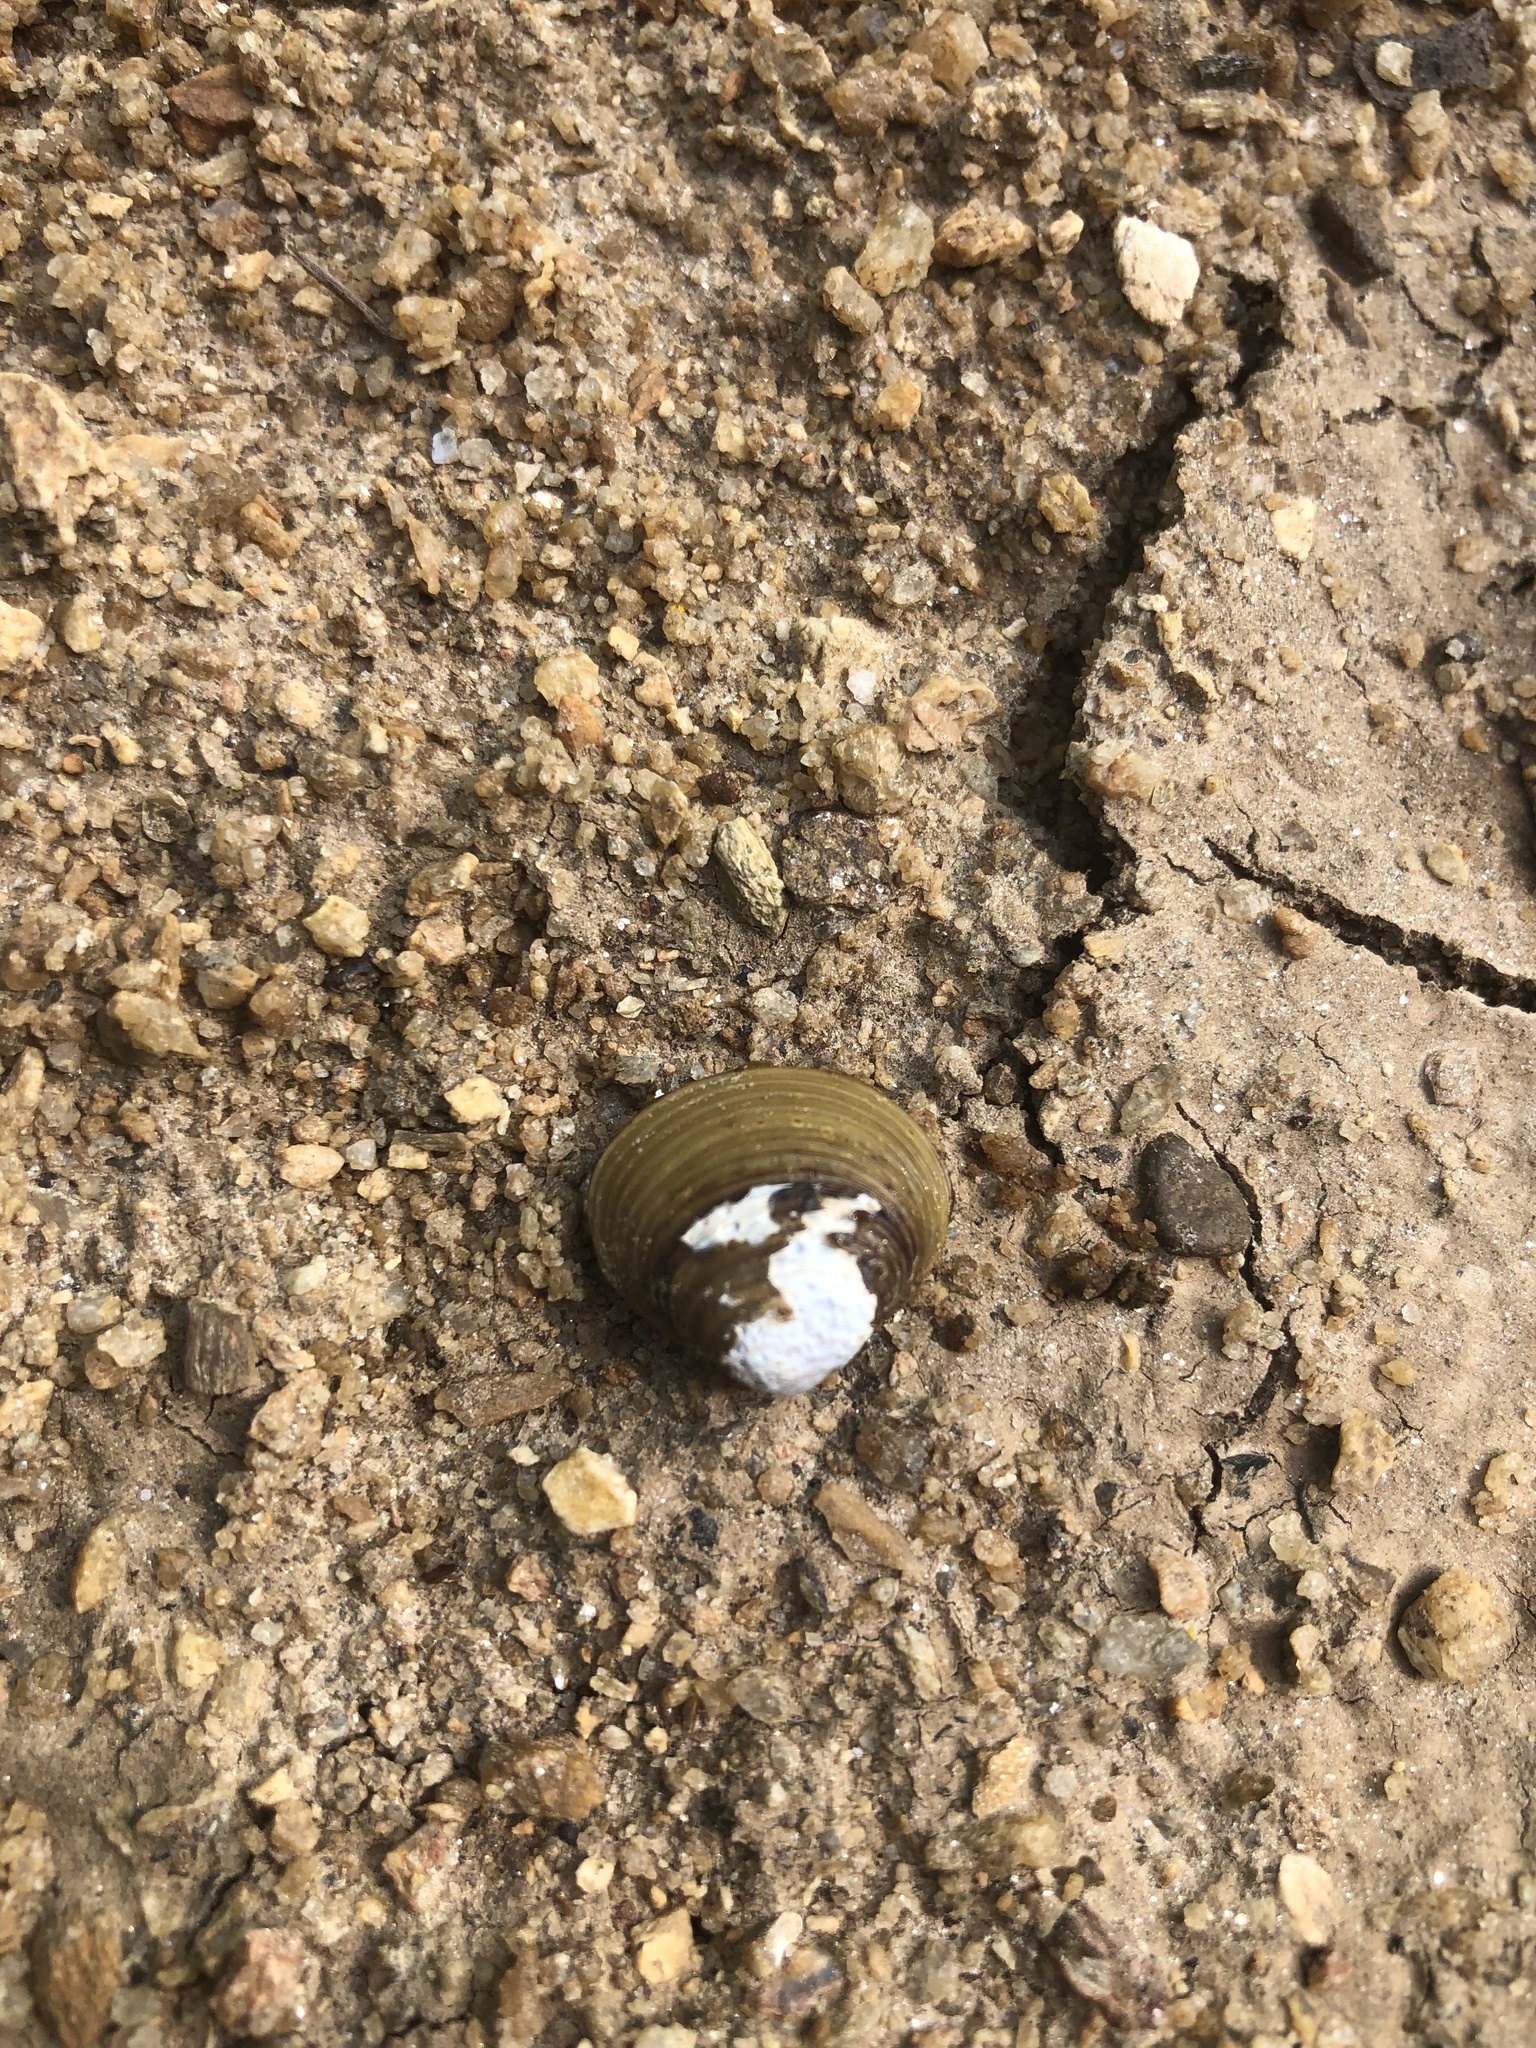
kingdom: Animalia
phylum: Mollusca
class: Bivalvia
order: Venerida
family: Cyrenidae
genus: Corbicula
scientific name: Corbicula fluminea
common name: Asian clam
